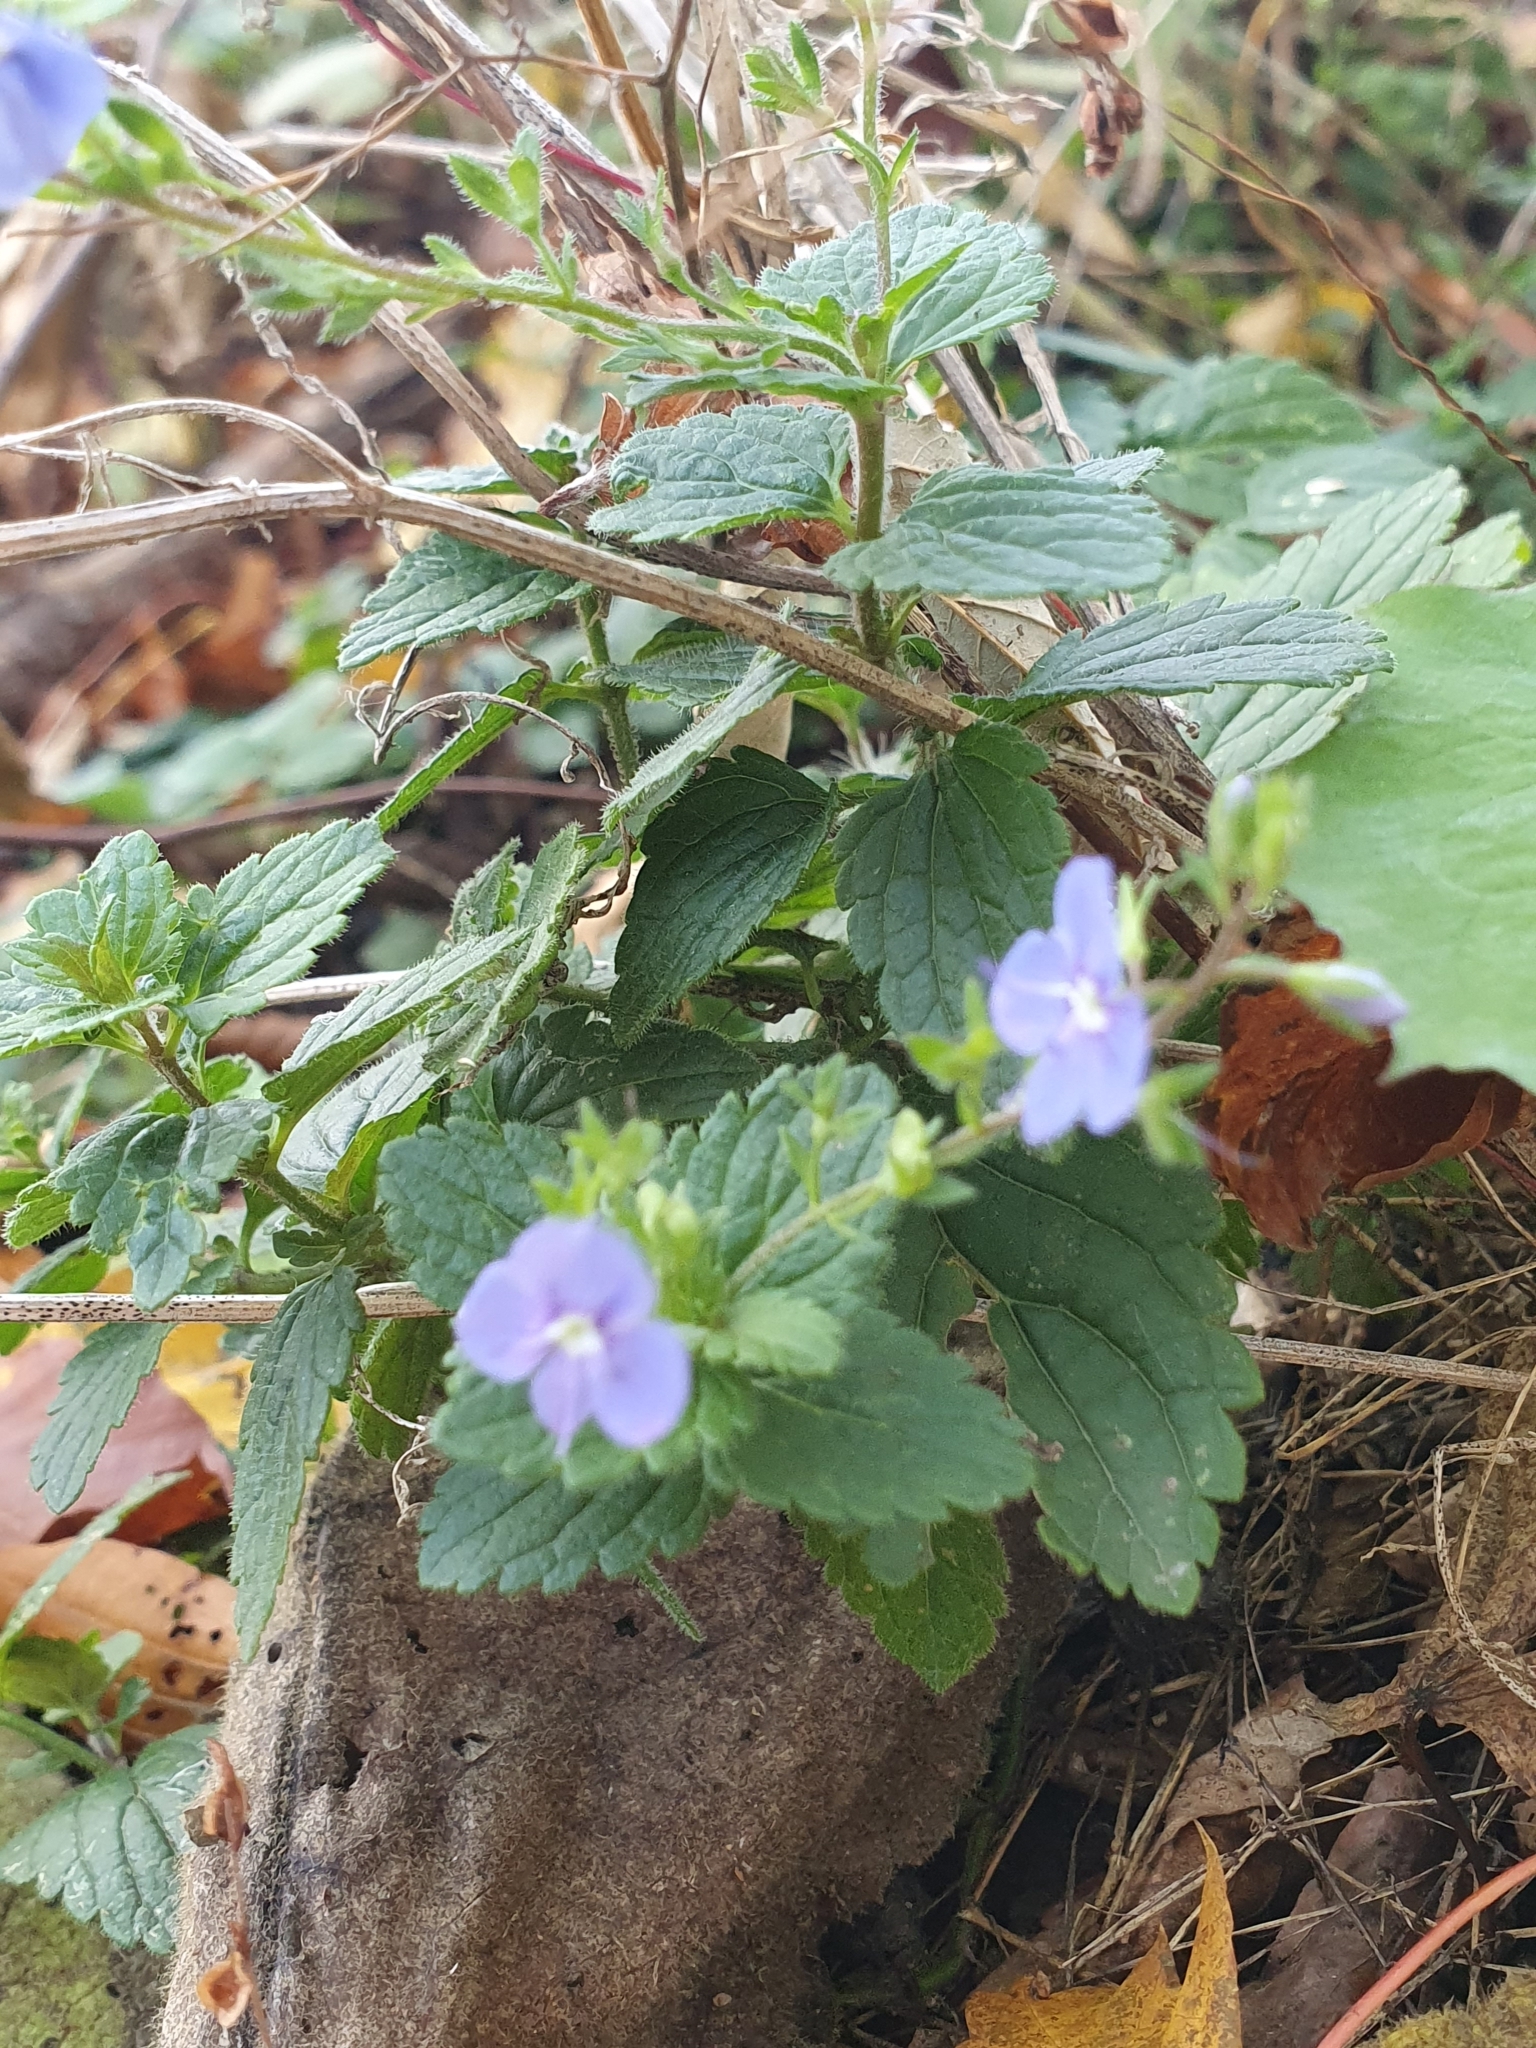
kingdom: Plantae
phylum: Tracheophyta
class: Magnoliopsida
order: Lamiales
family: Plantaginaceae
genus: Veronica
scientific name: Veronica chamaedrys
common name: Germander speedwell
